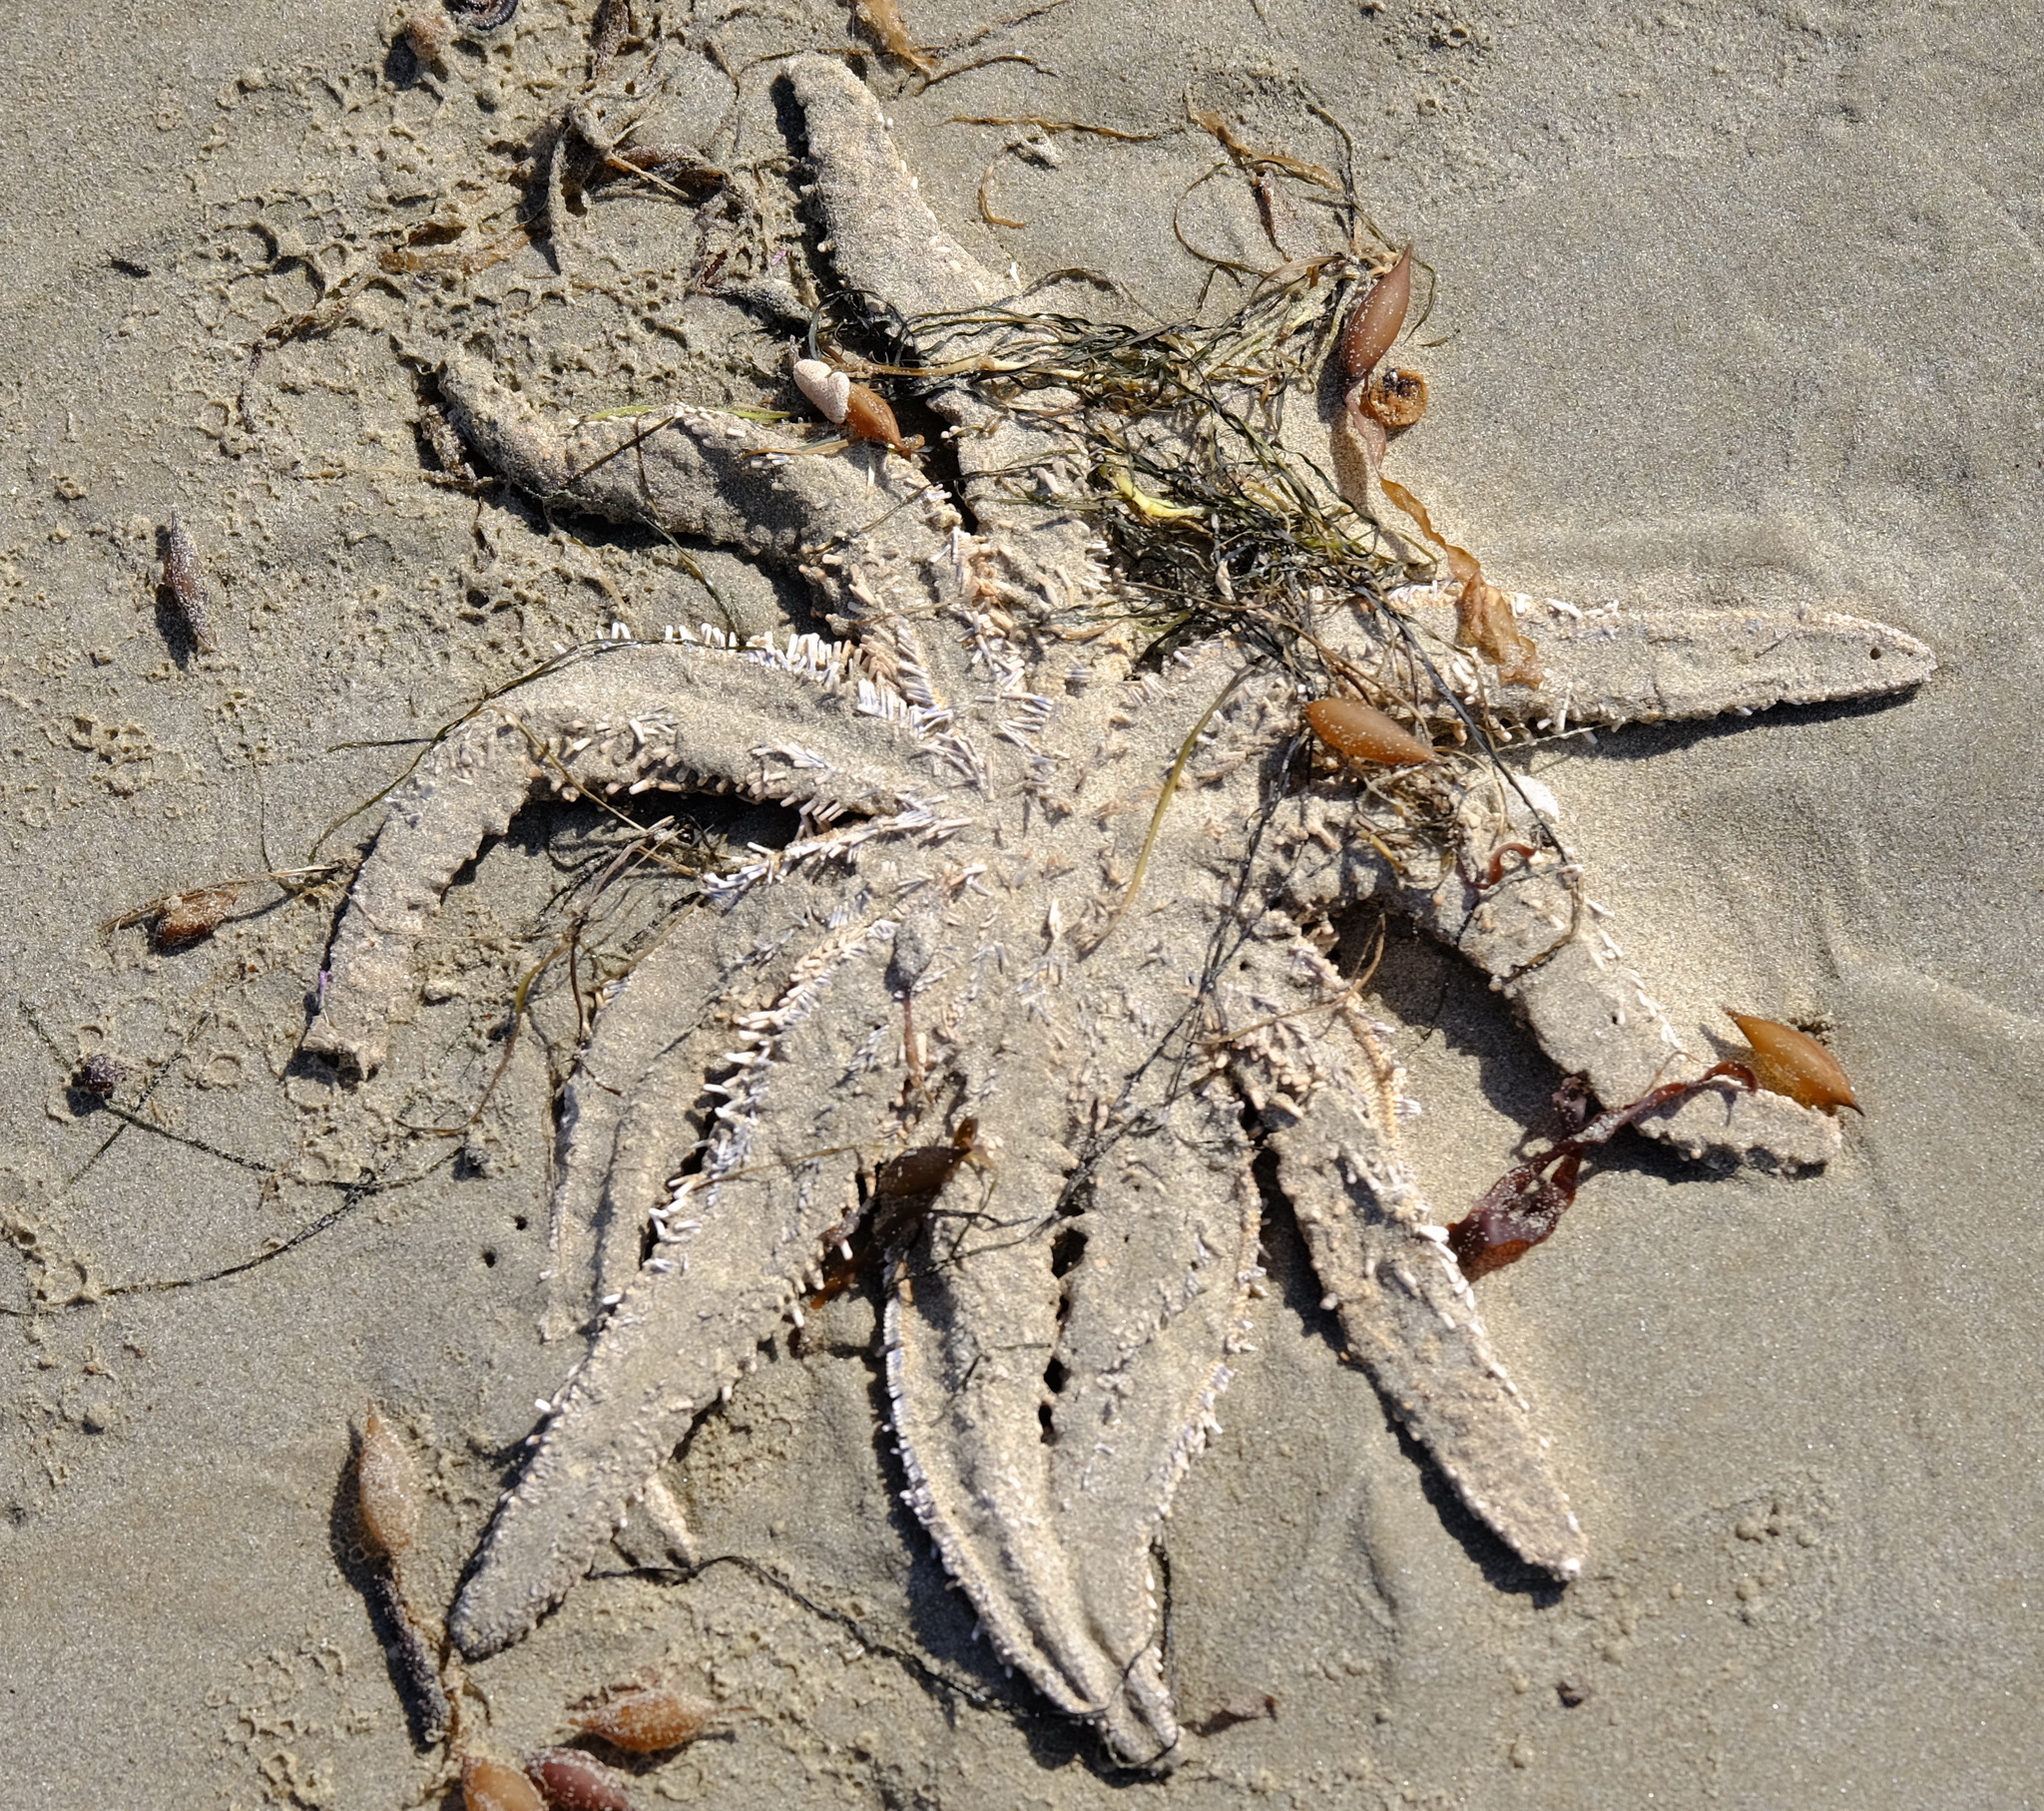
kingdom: Animalia
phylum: Echinodermata
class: Asteroidea
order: Forcipulatida
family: Asteriidae
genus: Coscinasterias
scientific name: Coscinasterias muricata
